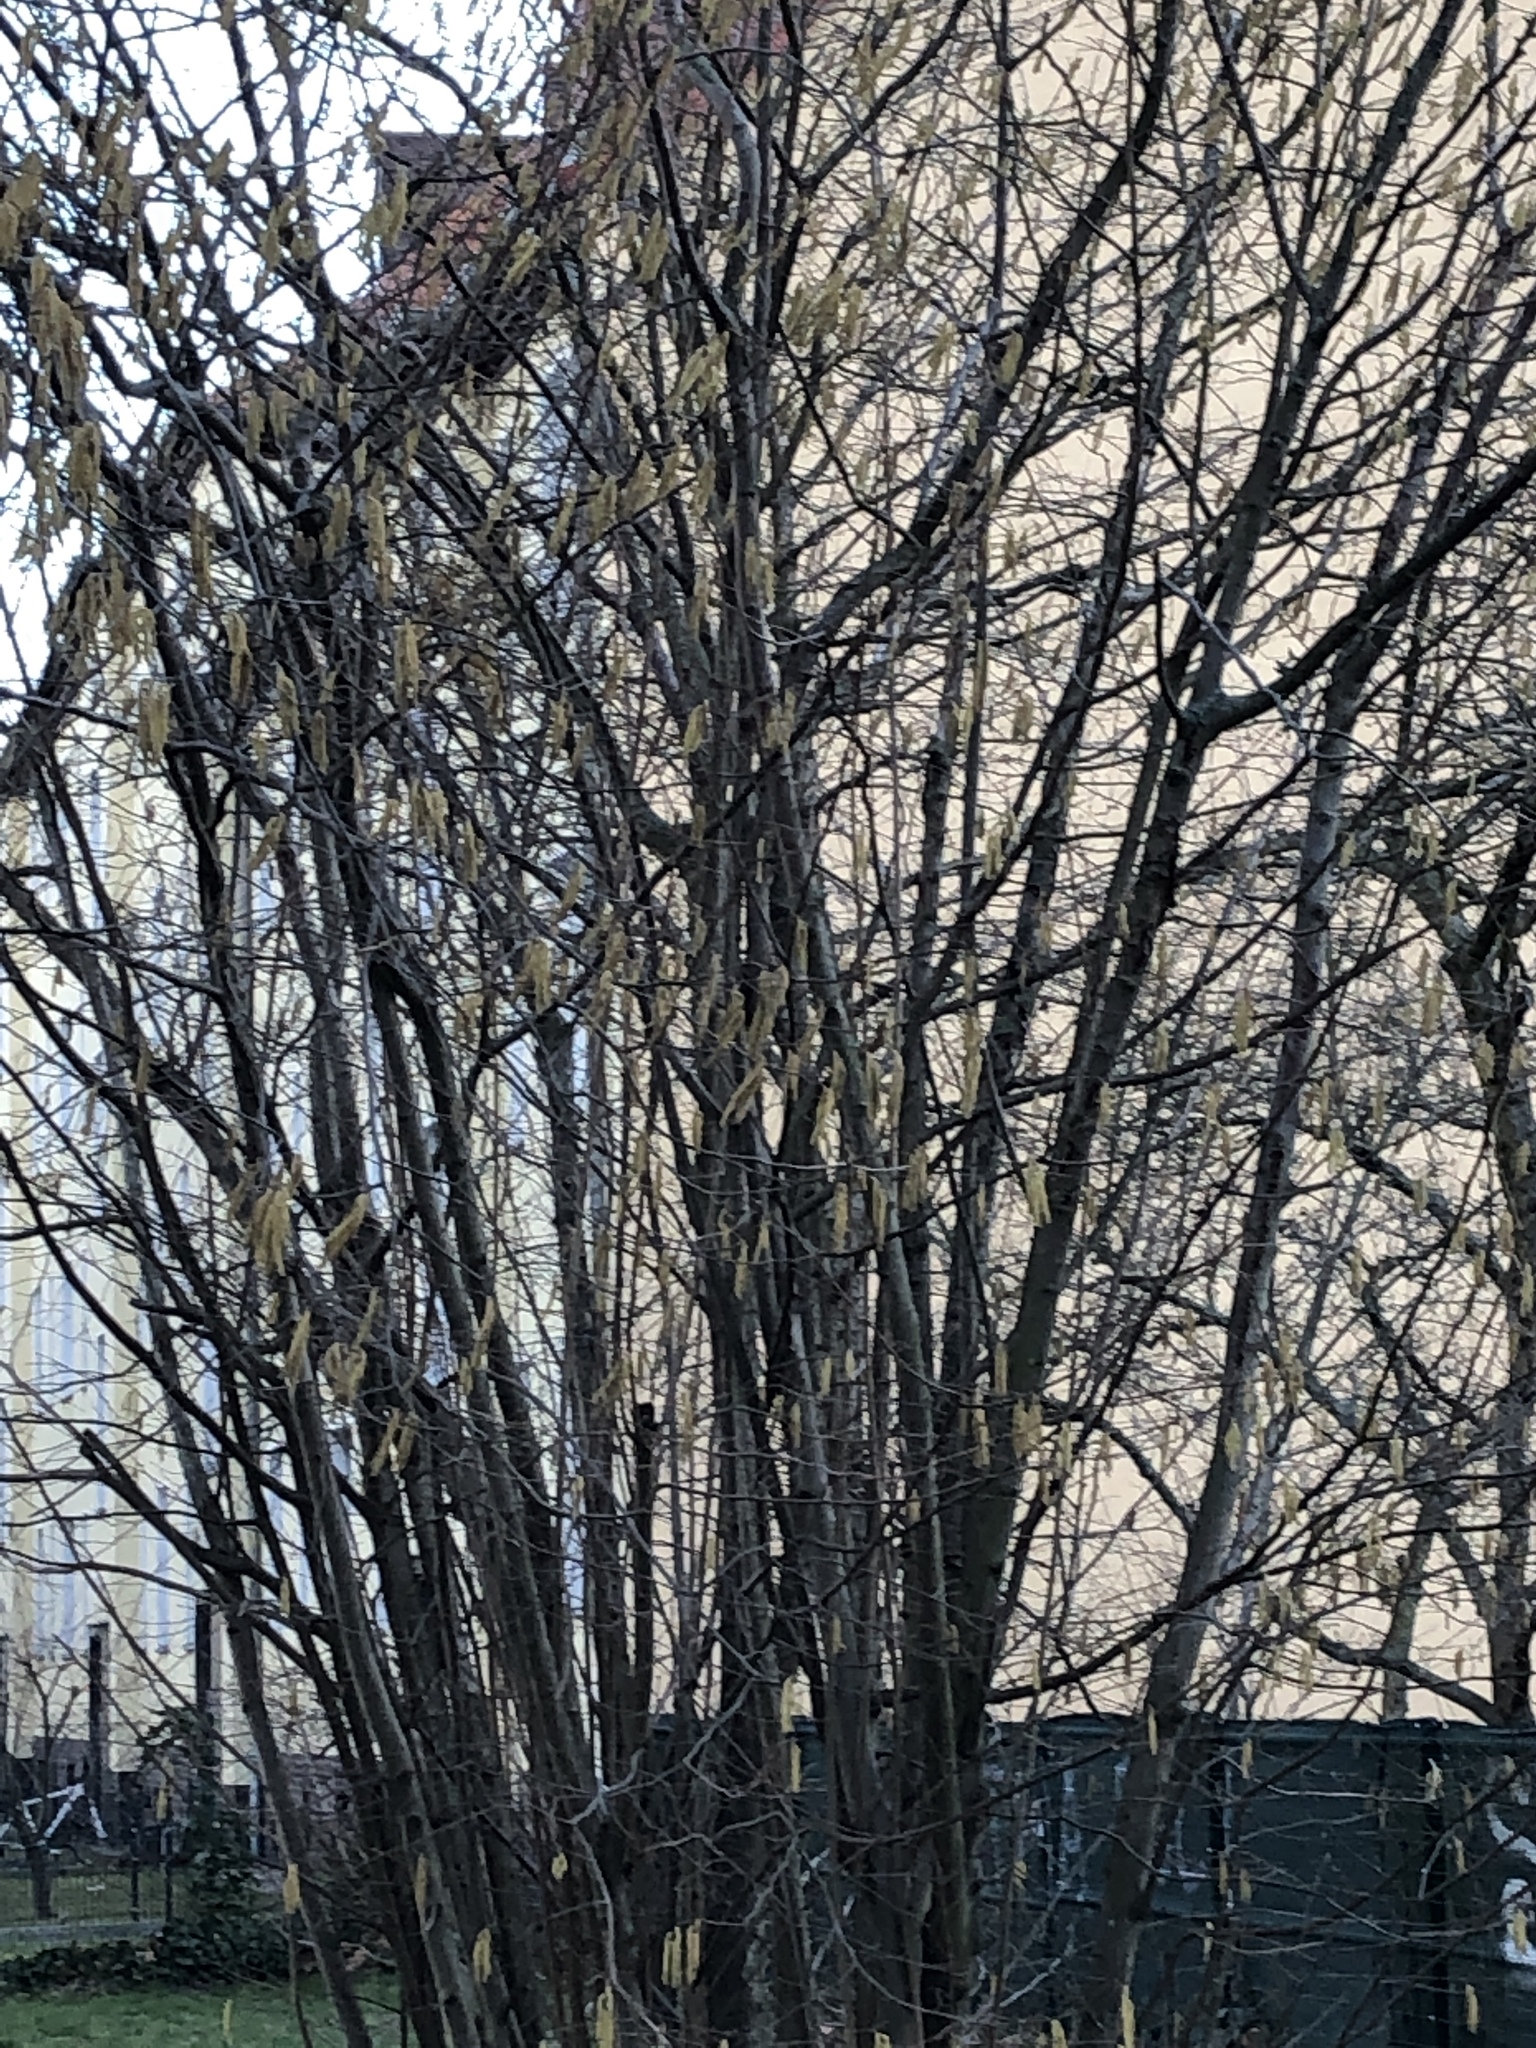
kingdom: Plantae
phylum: Tracheophyta
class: Magnoliopsida
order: Fagales
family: Betulaceae
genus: Corylus
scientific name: Corylus avellana
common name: European hazel
